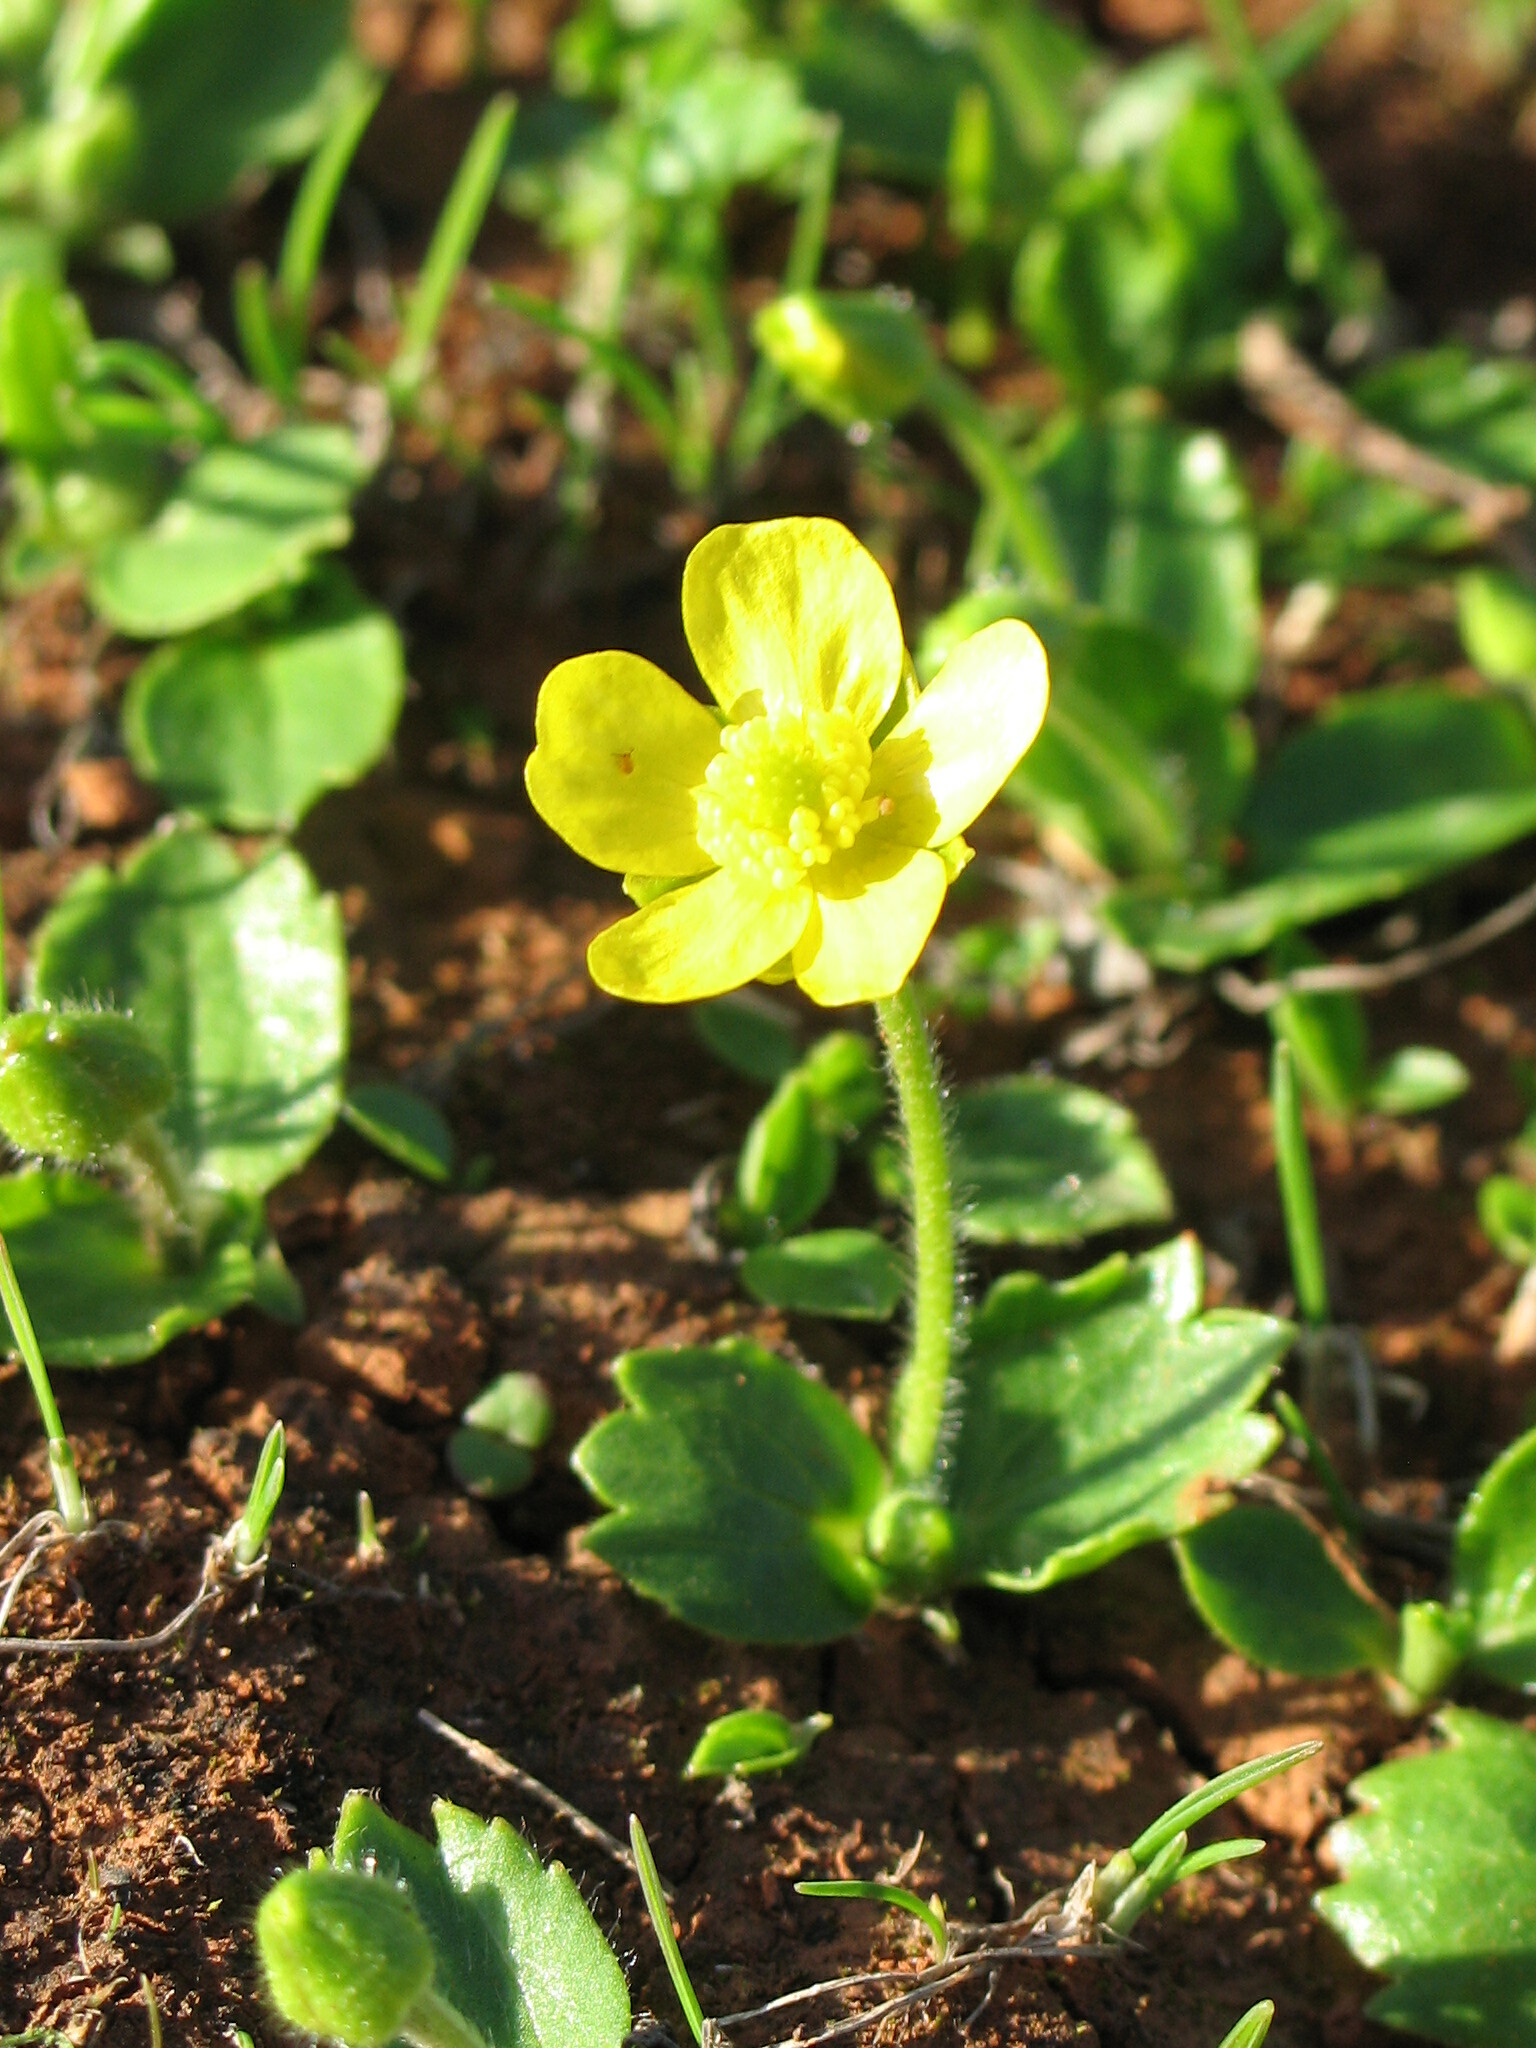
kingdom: Plantae
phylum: Tracheophyta
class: Magnoliopsida
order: Ranunculales
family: Ranunculaceae
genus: Ranunculus
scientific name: Ranunculus cytheraeus
